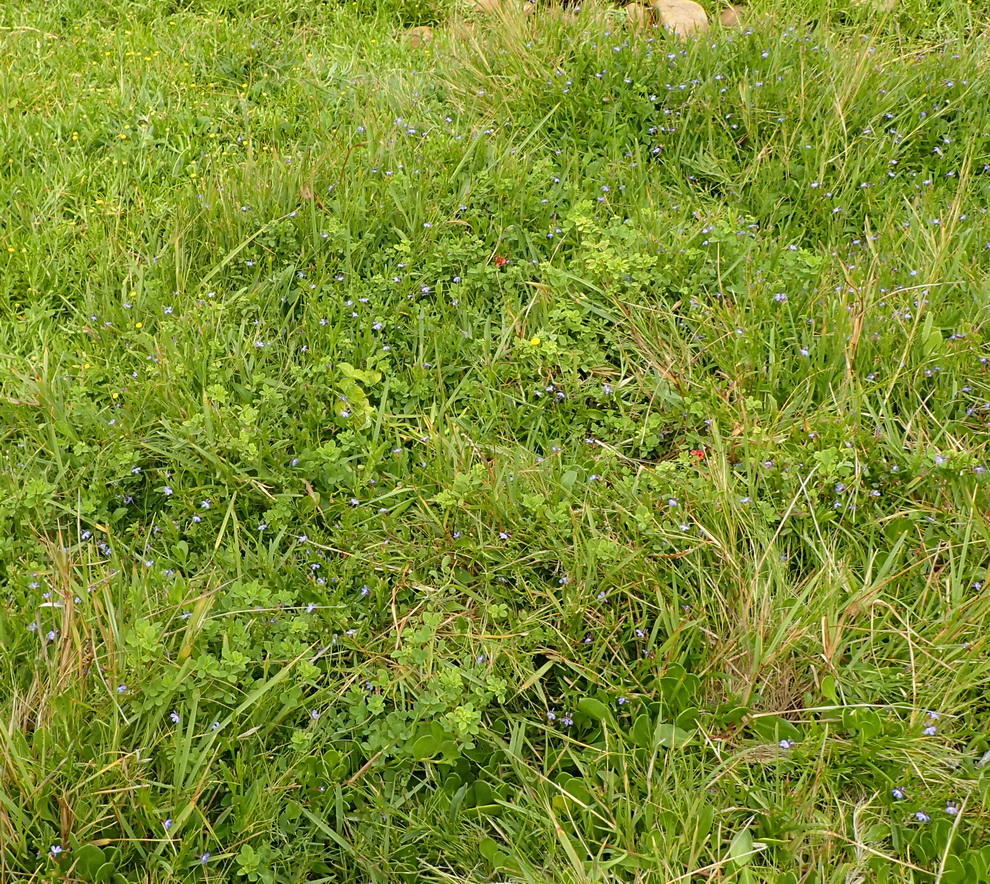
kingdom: Plantae
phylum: Tracheophyta
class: Magnoliopsida
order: Asterales
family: Campanulaceae
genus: Lobelia
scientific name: Lobelia anceps
